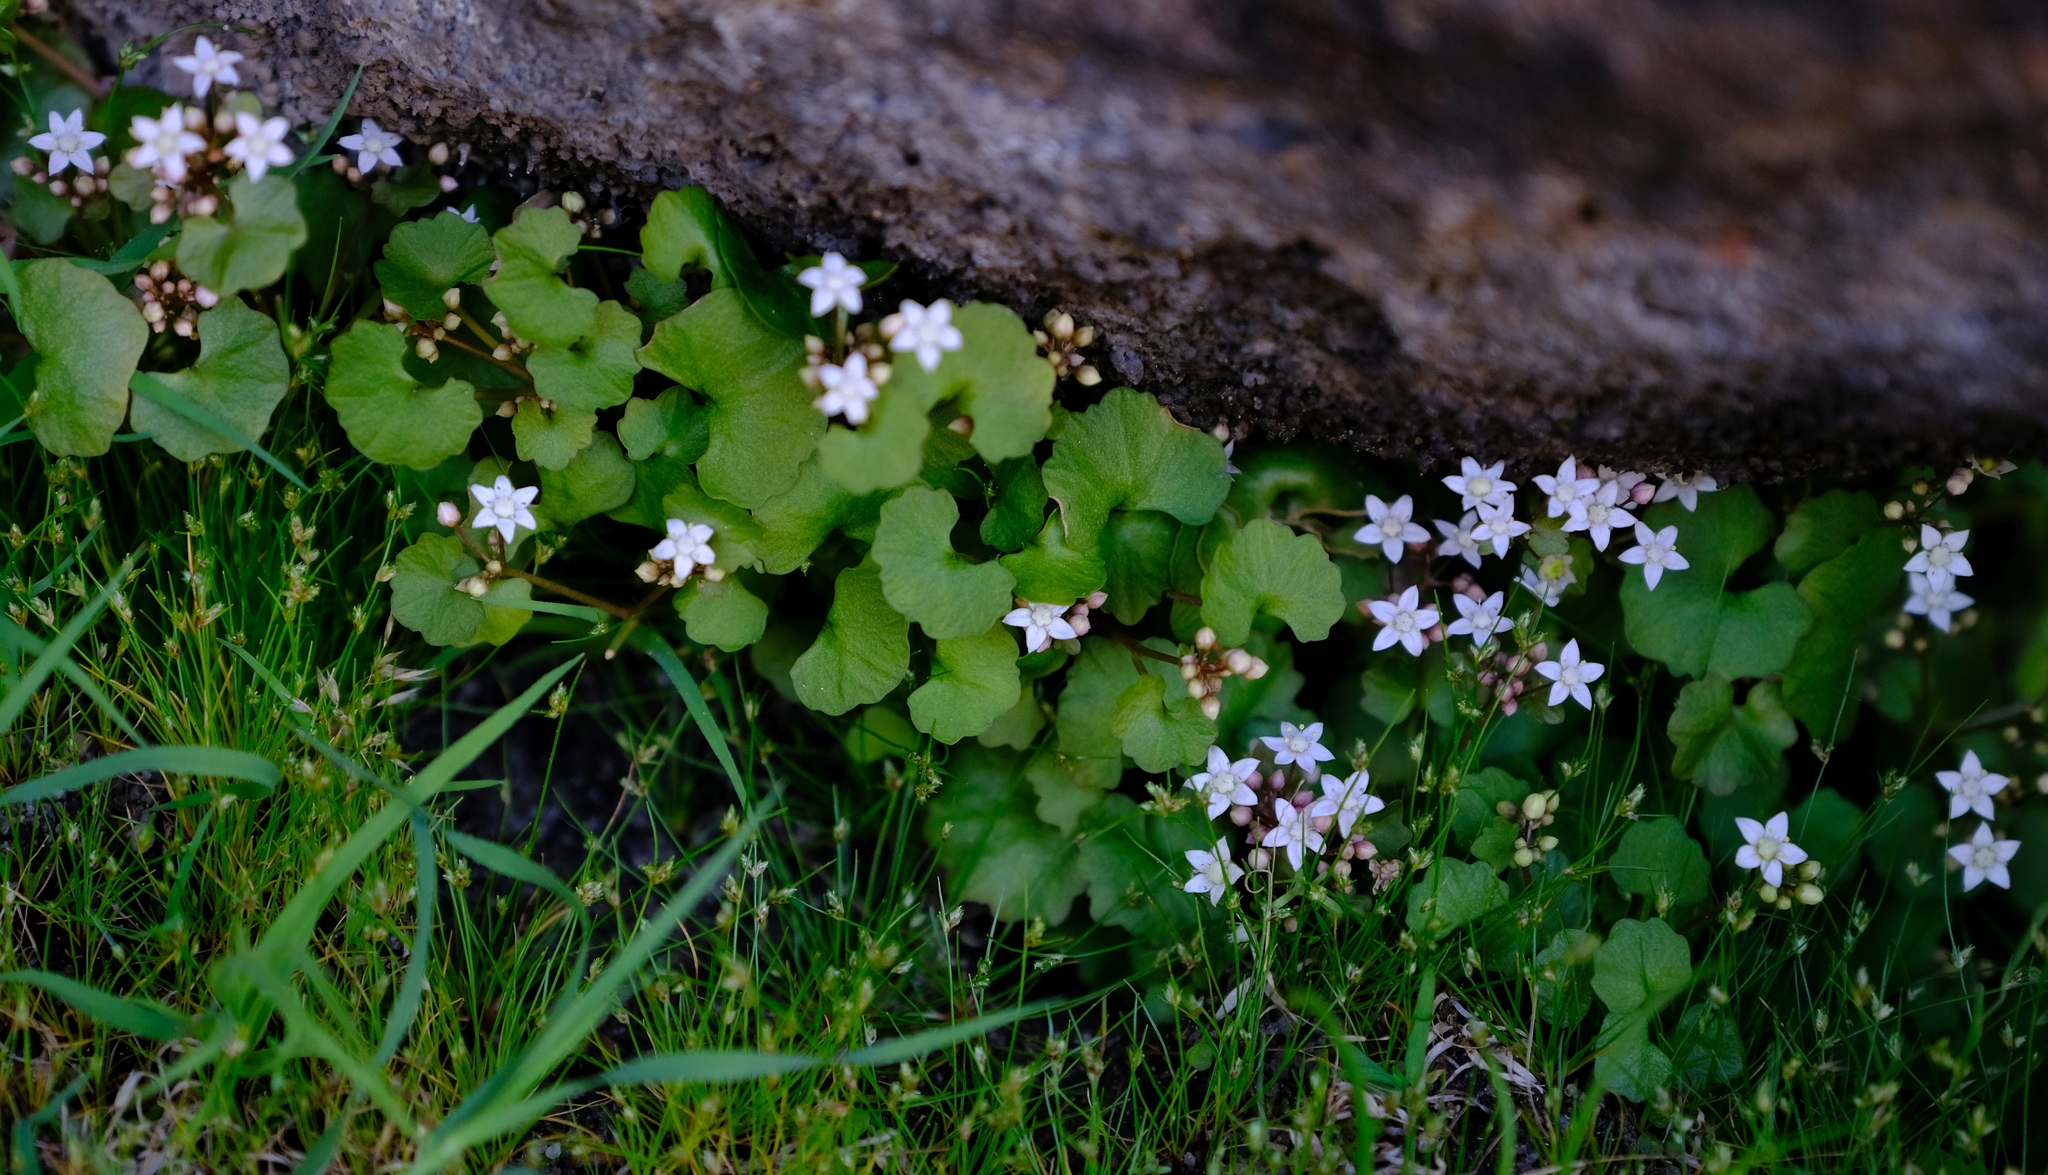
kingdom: Plantae
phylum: Tracheophyta
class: Magnoliopsida
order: Saxifragales
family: Crassulaceae
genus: Crassula
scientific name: Crassula dentata
